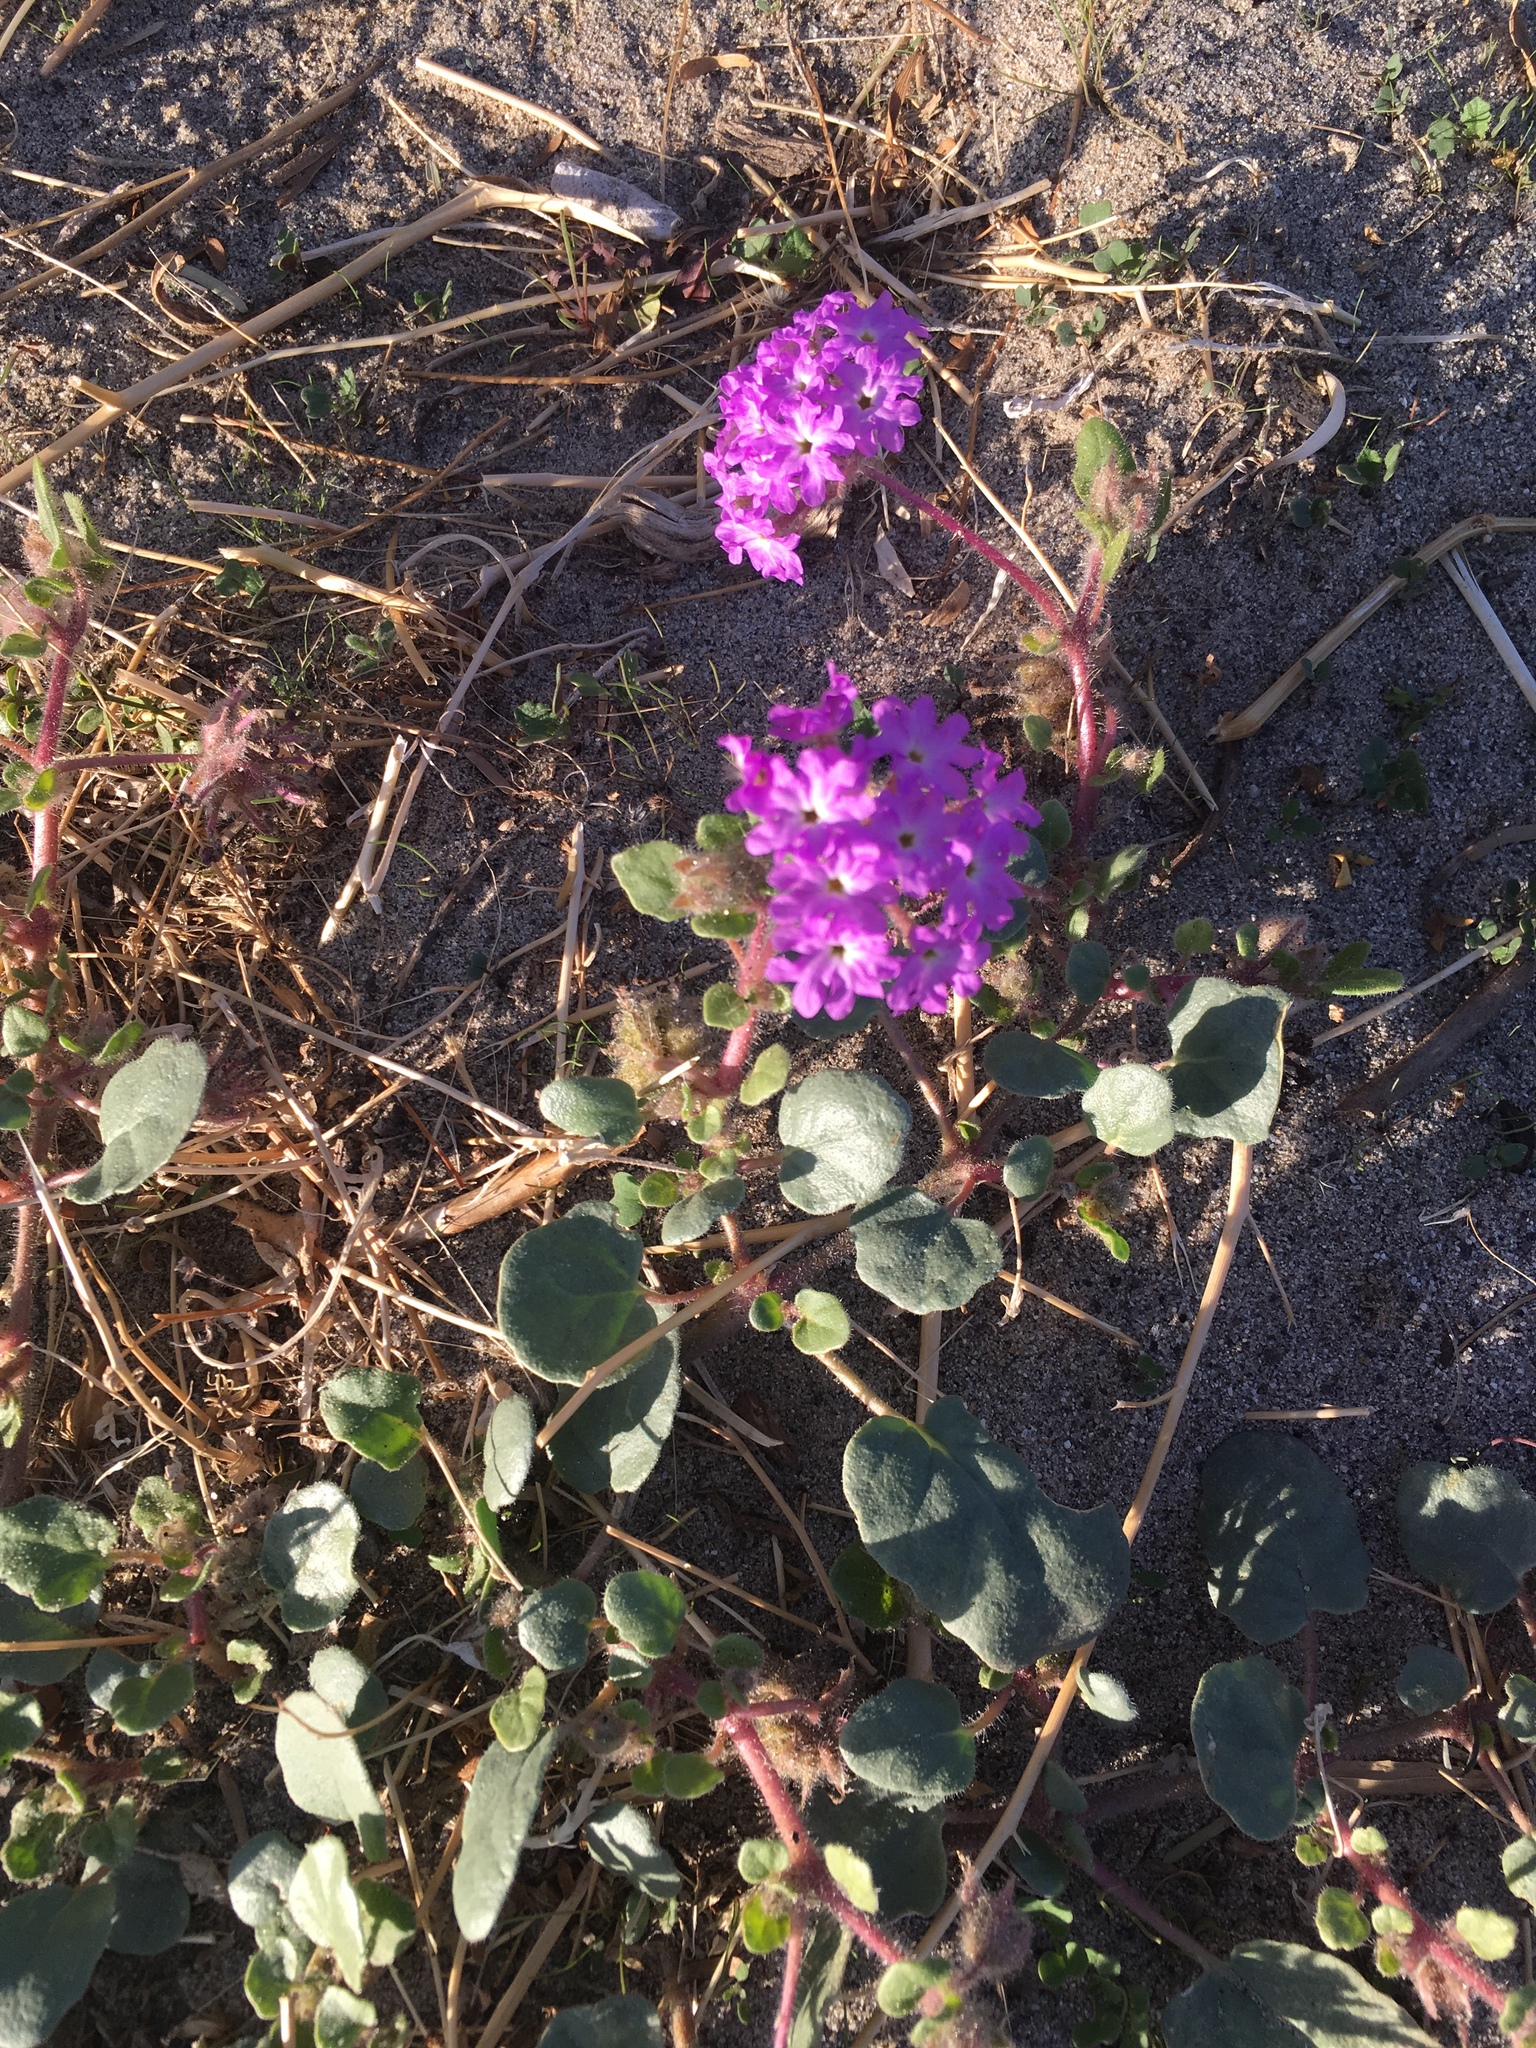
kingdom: Plantae
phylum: Tracheophyta
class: Magnoliopsida
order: Caryophyllales
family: Nyctaginaceae
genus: Abronia
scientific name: Abronia villosa
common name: Desert sand-verbena
